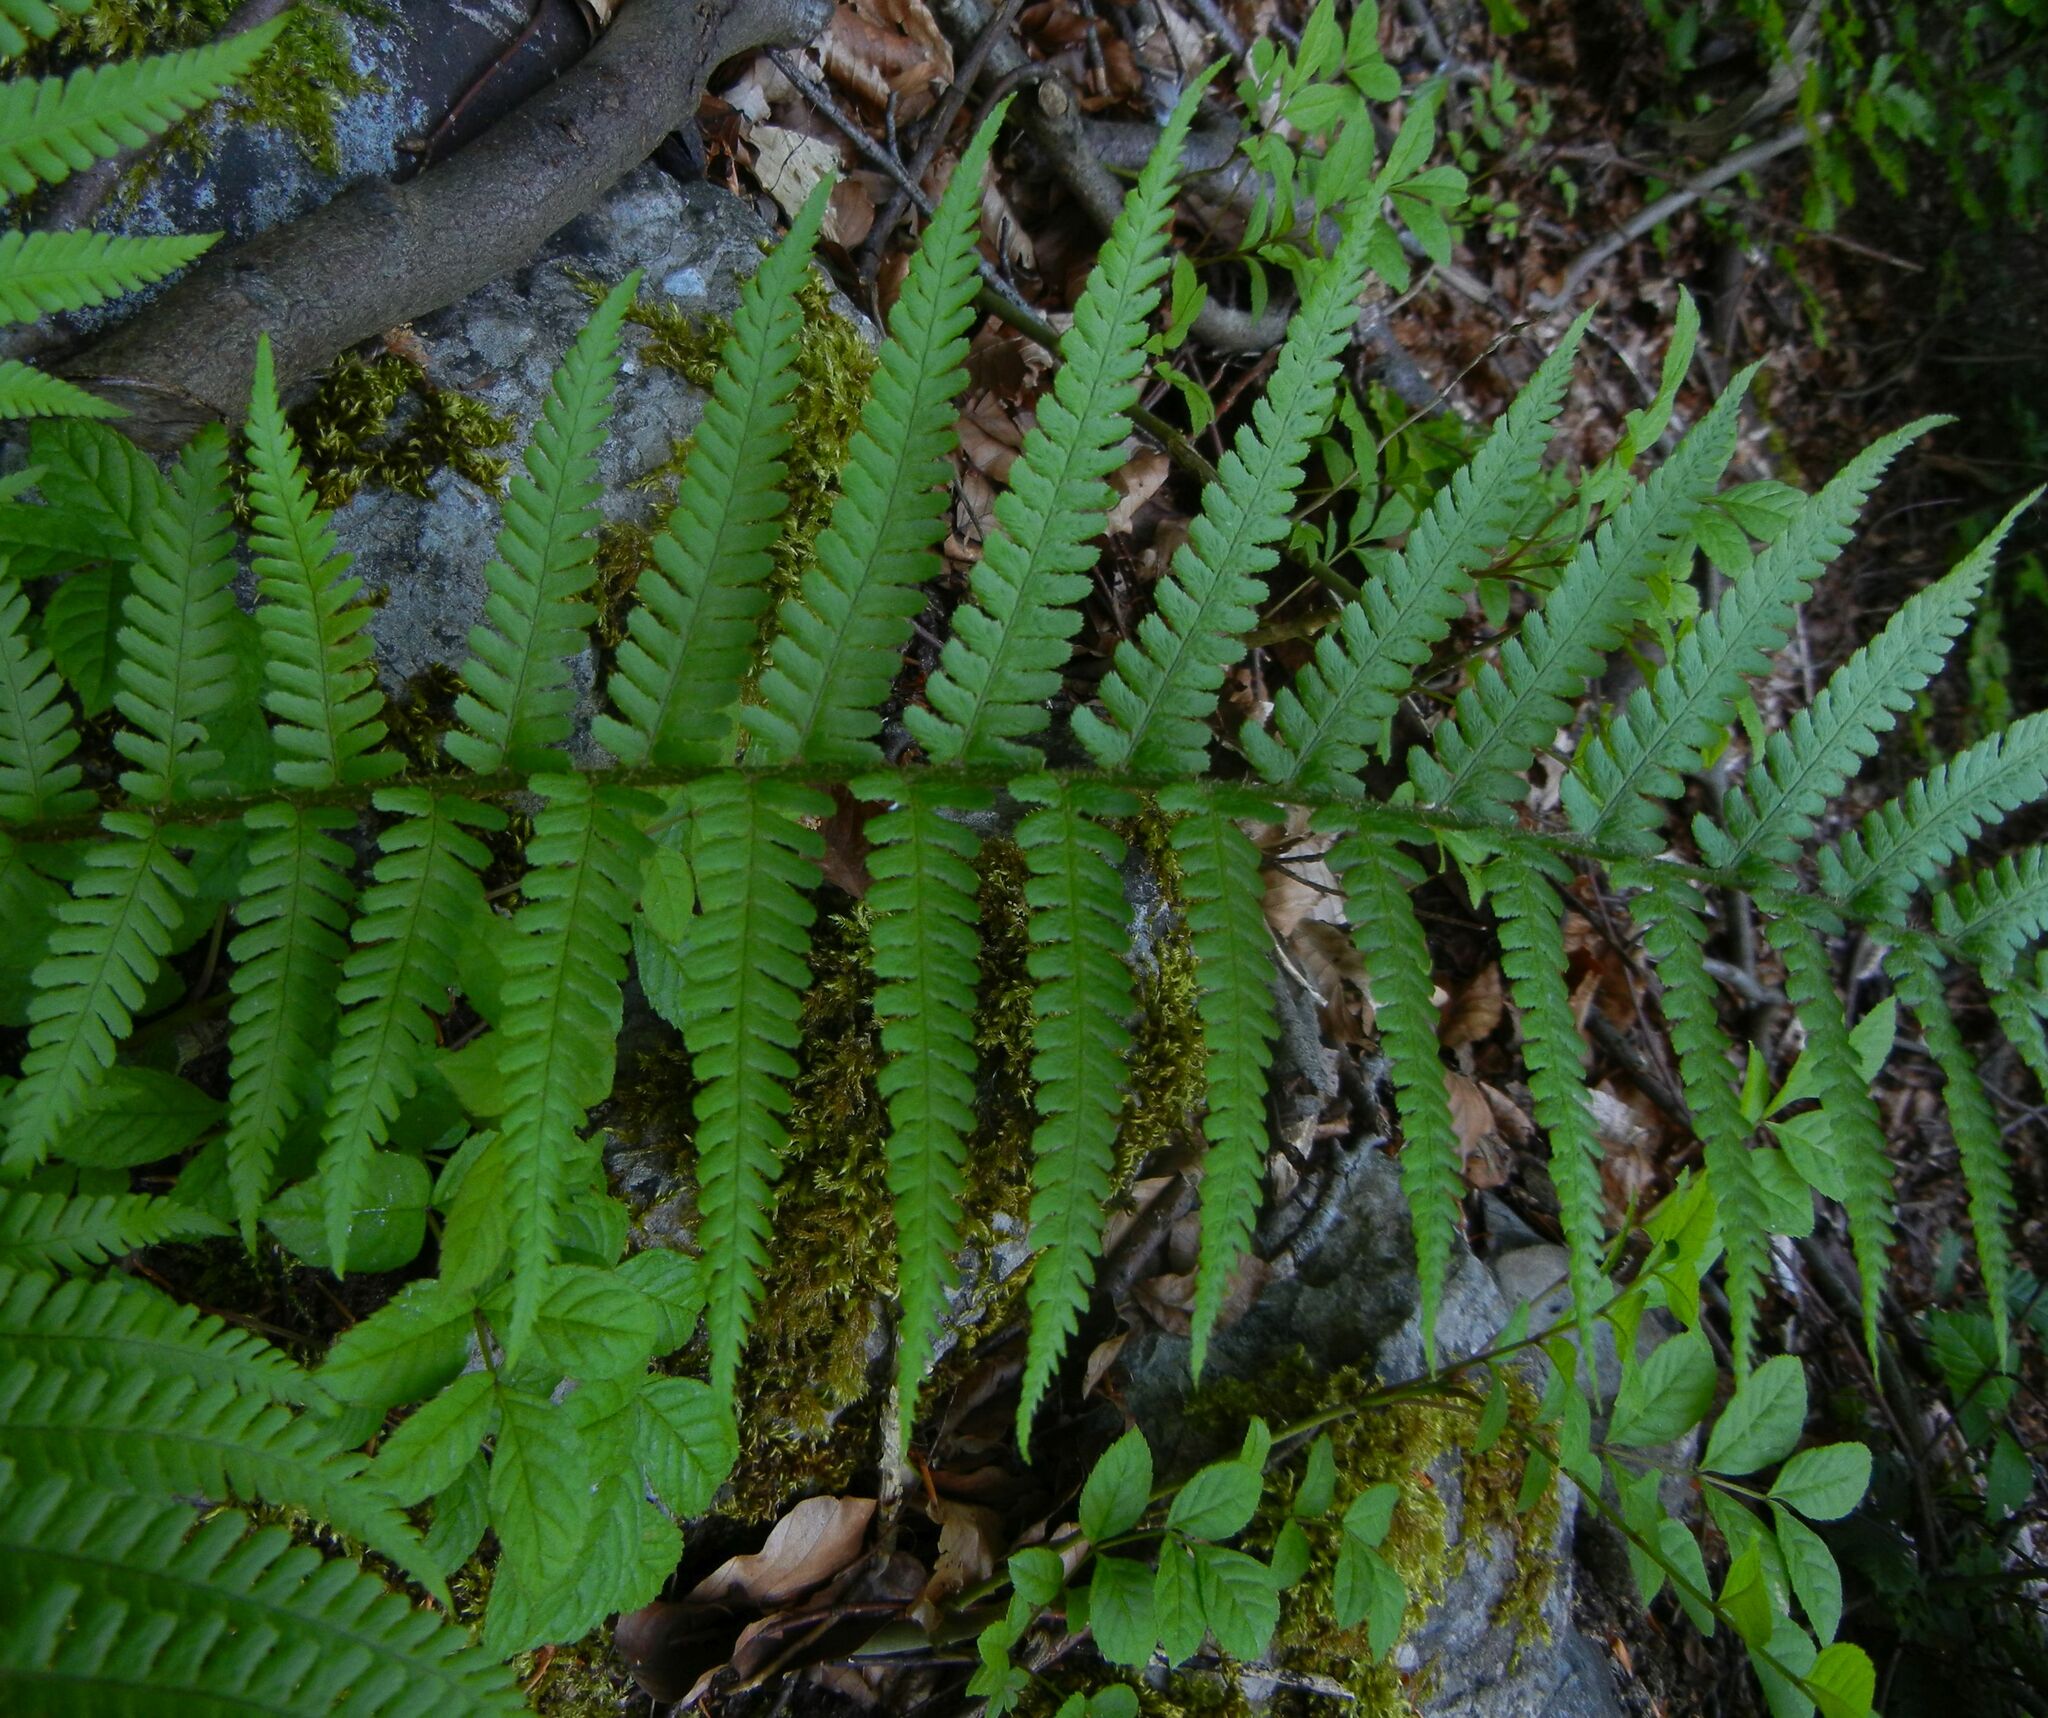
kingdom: Plantae
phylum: Tracheophyta
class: Polypodiopsida
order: Polypodiales
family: Dryopteridaceae
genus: Dryopteris
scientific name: Dryopteris filix-mas
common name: Male fern
